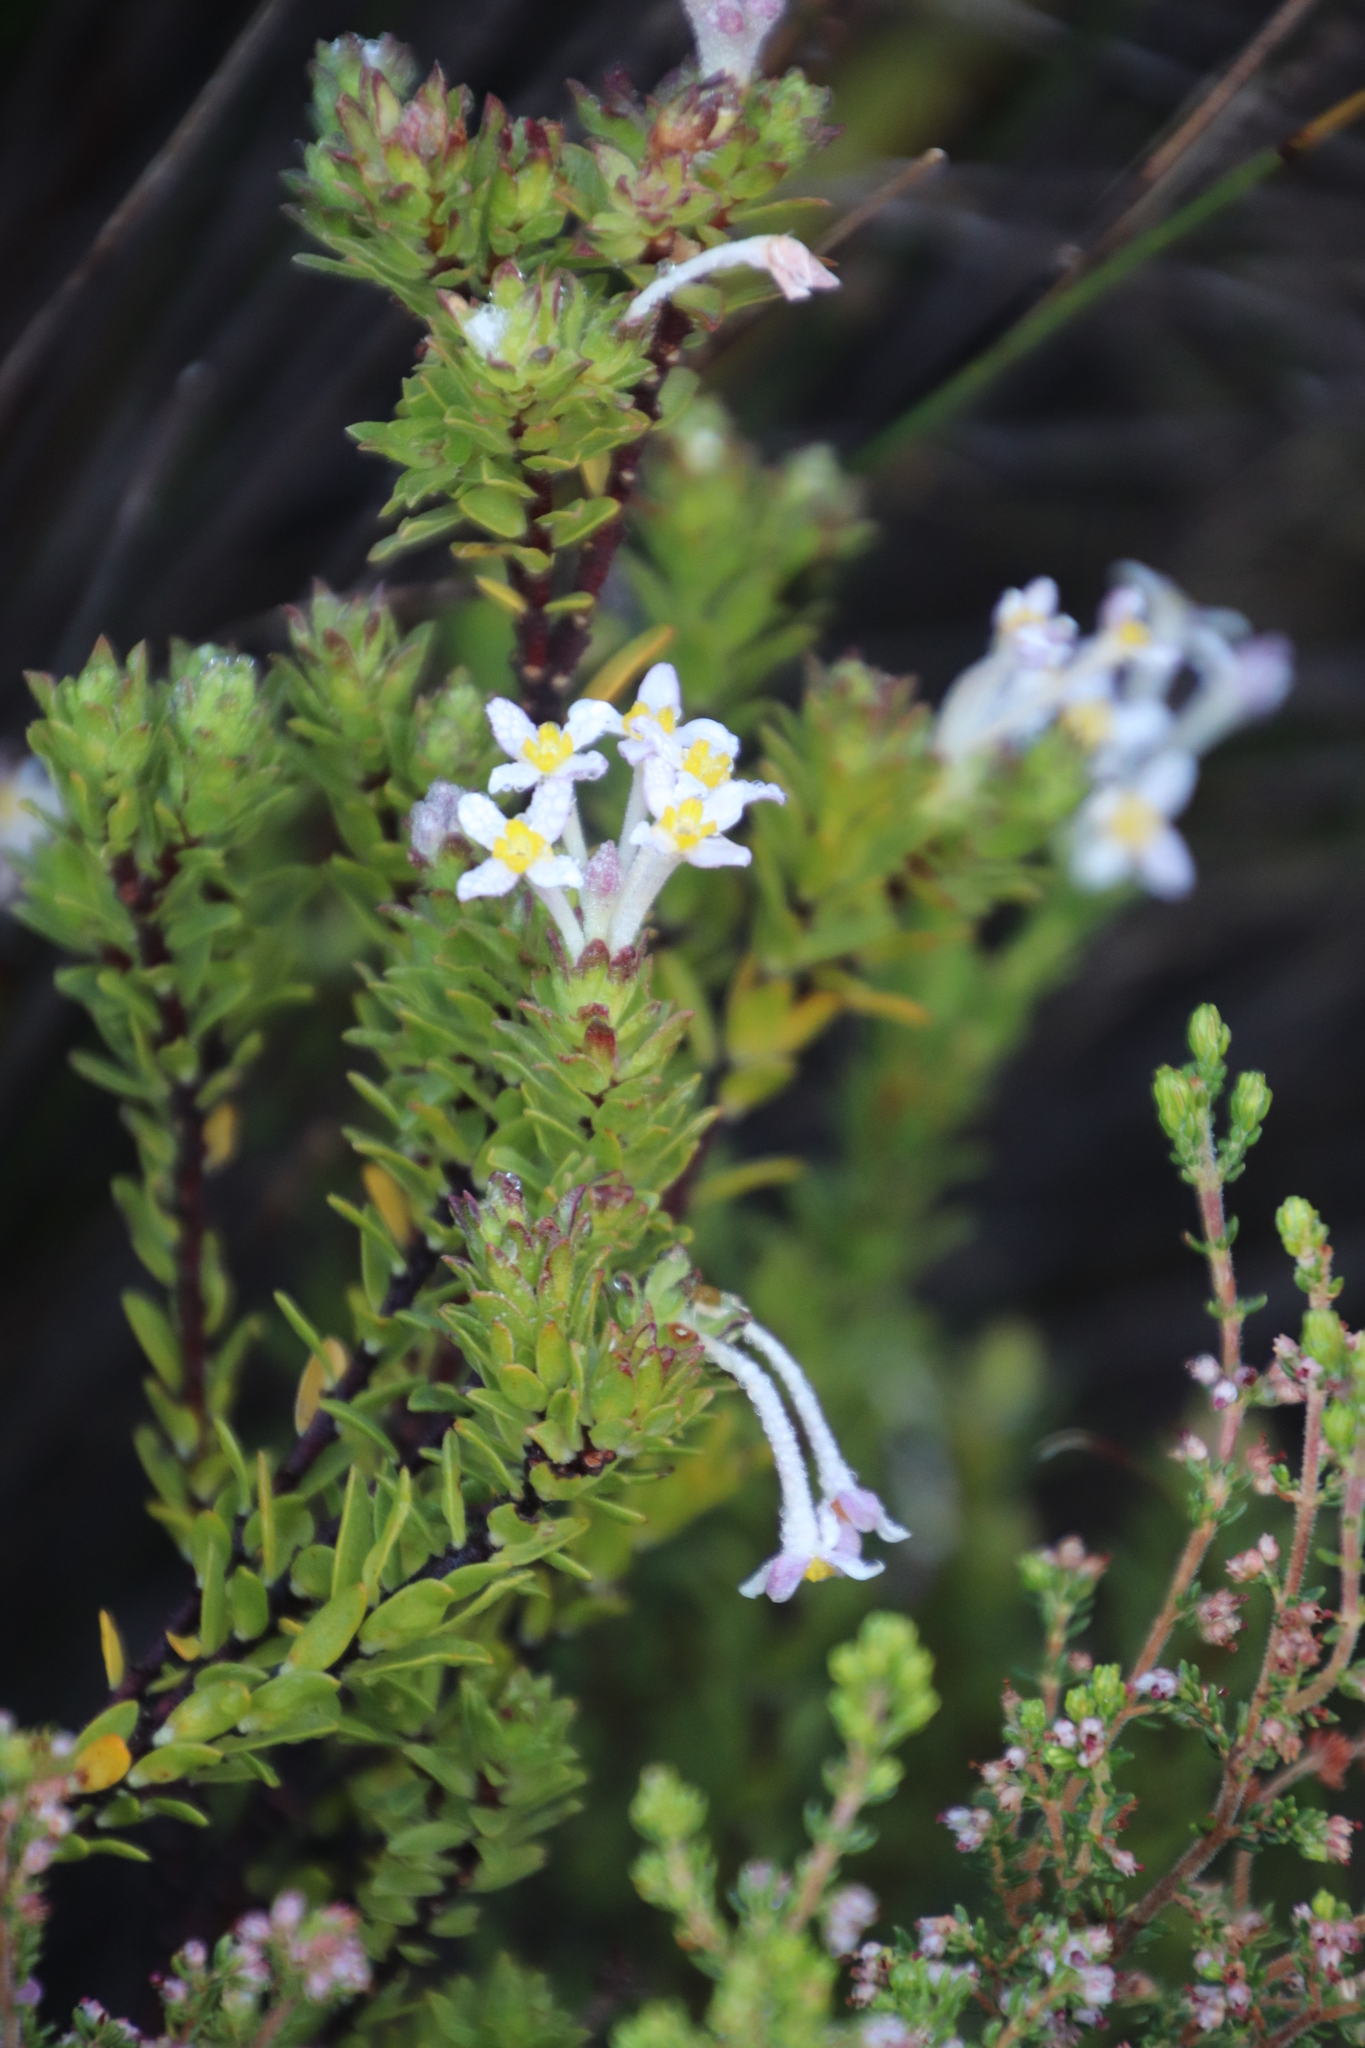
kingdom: Plantae
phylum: Tracheophyta
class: Magnoliopsida
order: Malvales
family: Thymelaeaceae
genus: Gnidia
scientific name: Gnidia tomentosa
